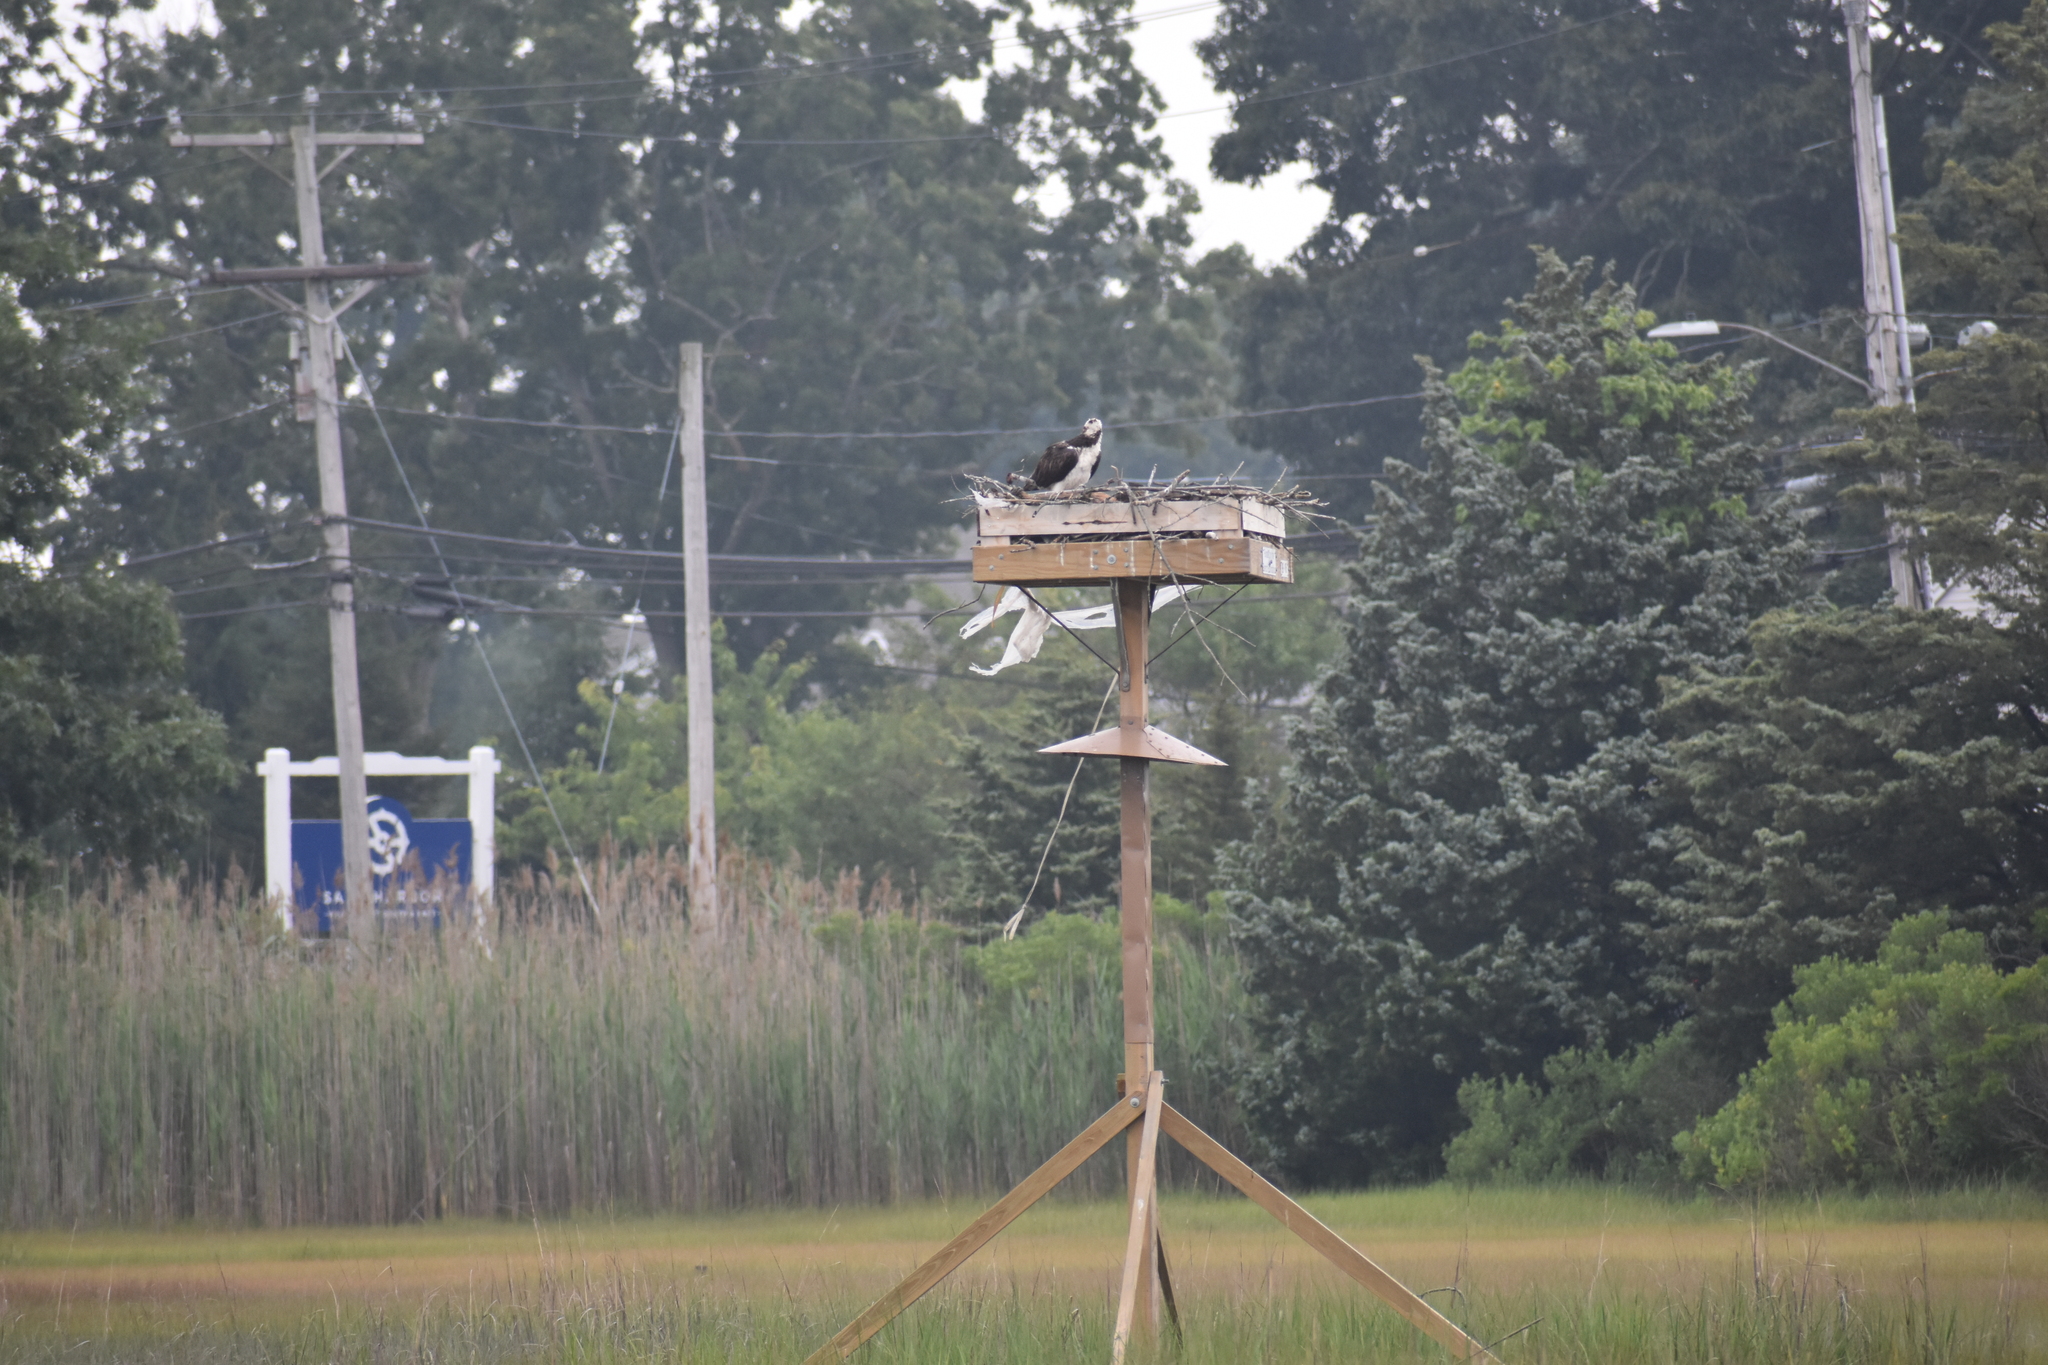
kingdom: Animalia
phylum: Chordata
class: Aves
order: Accipitriformes
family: Pandionidae
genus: Pandion
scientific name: Pandion haliaetus
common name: Osprey
